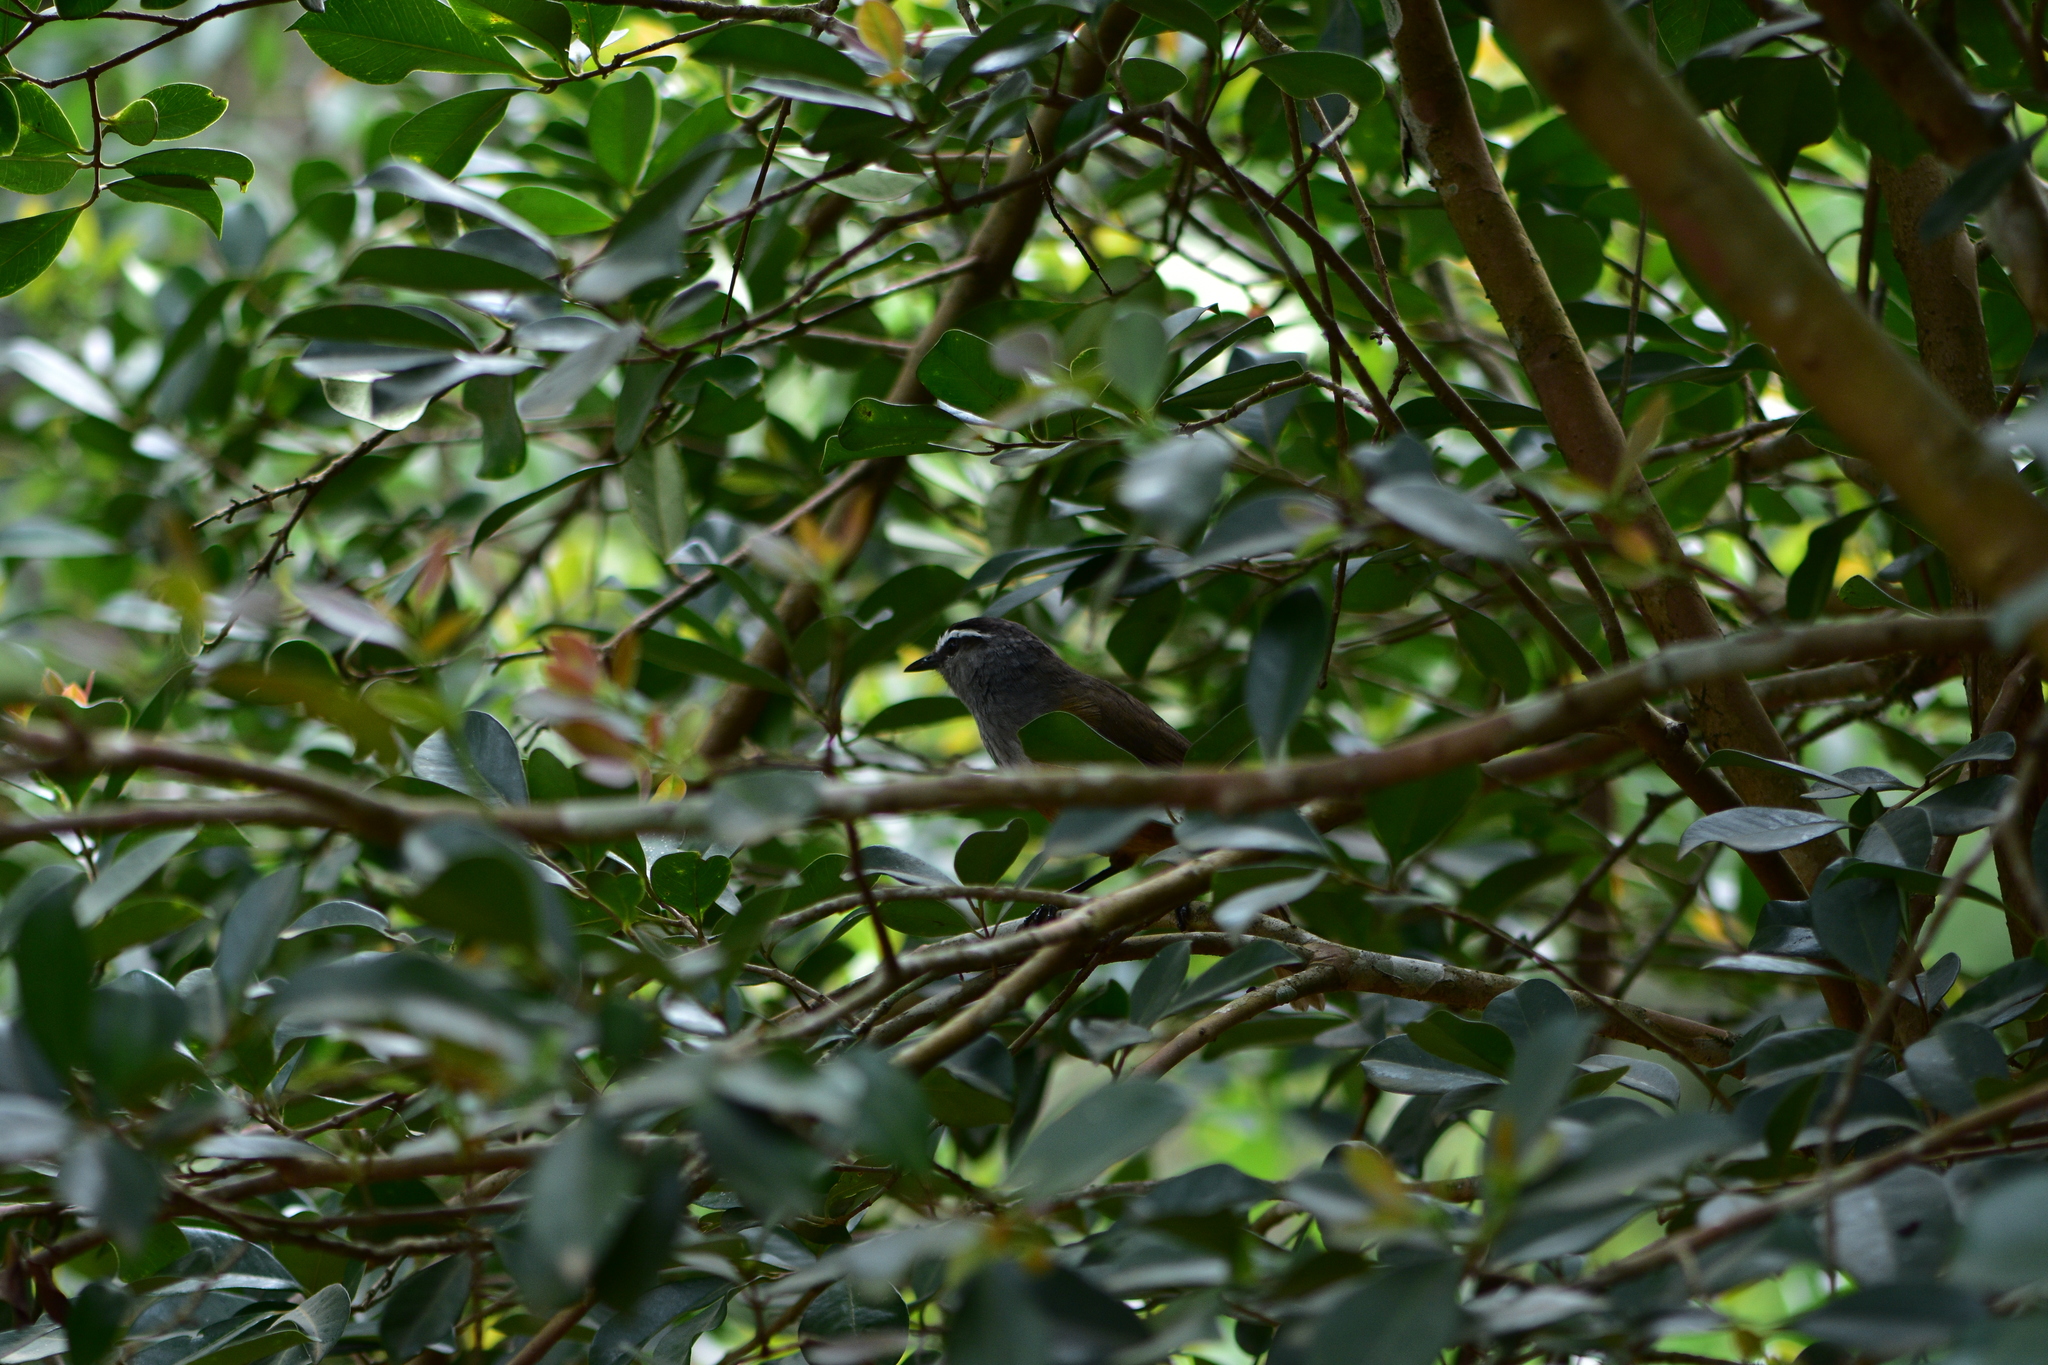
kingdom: Animalia
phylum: Chordata
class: Aves
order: Passeriformes
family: Leiothrichidae
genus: Trochalopteron
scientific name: Trochalopteron fairbanki
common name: Kerala laughingthrush
